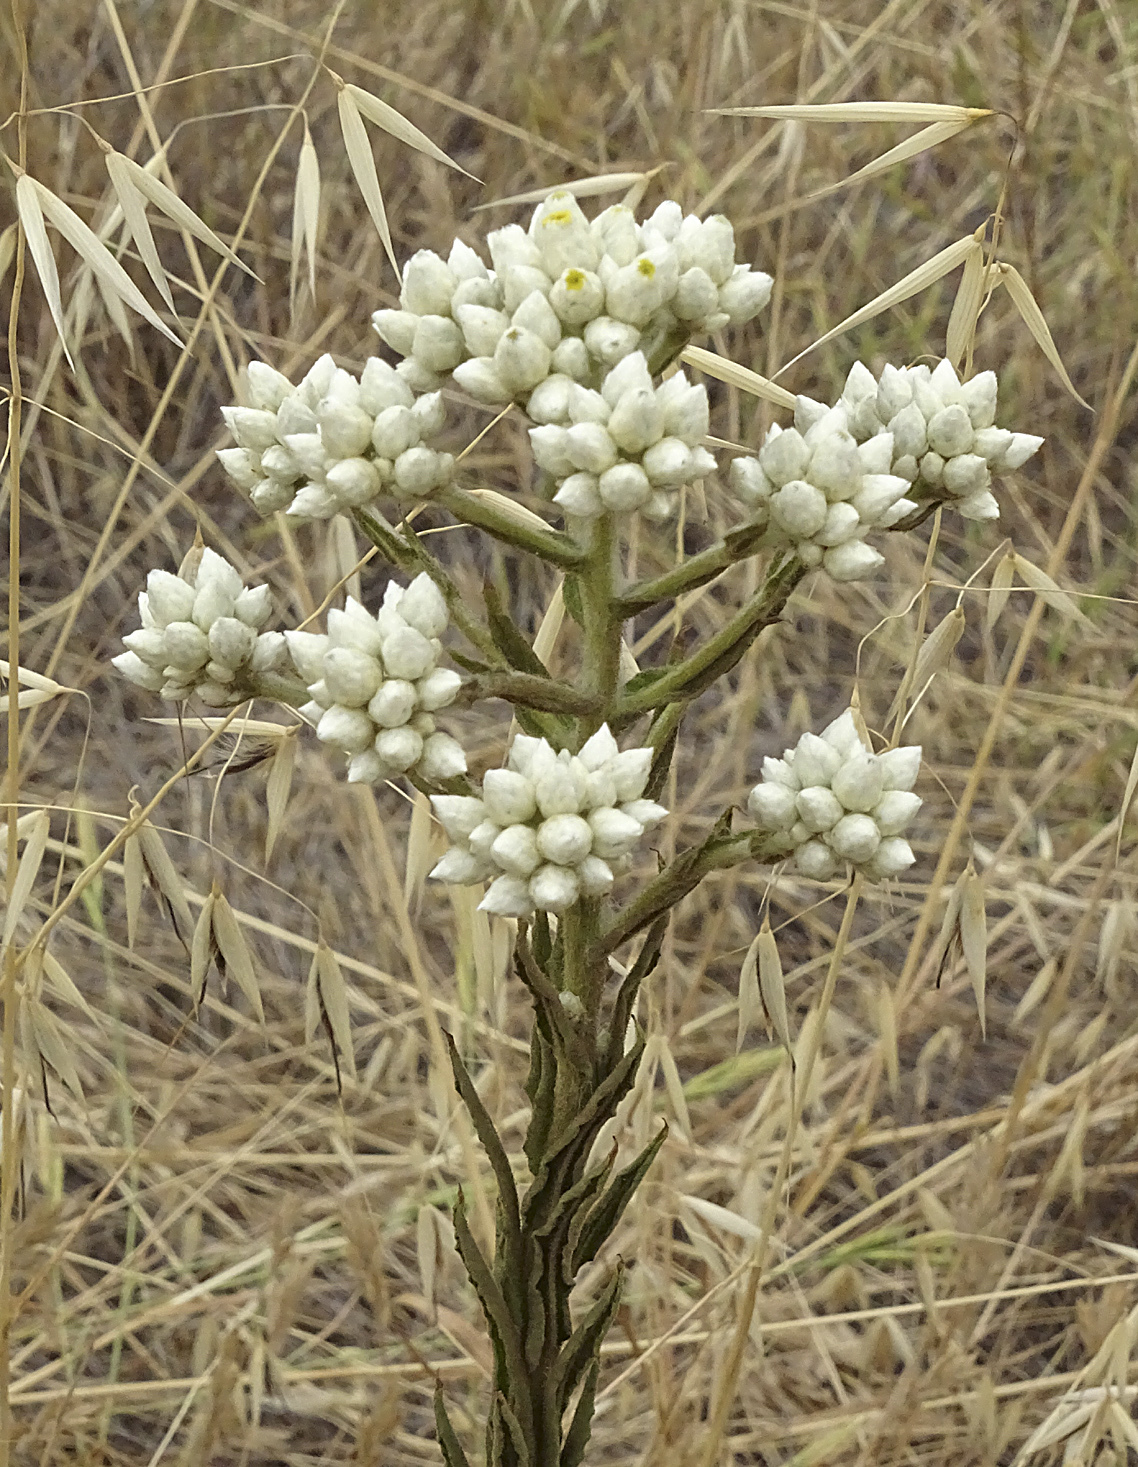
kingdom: Plantae
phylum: Tracheophyta
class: Magnoliopsida
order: Asterales
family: Asteraceae
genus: Pseudognaphalium
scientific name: Pseudognaphalium californicum
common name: California rabbit-tobacco
